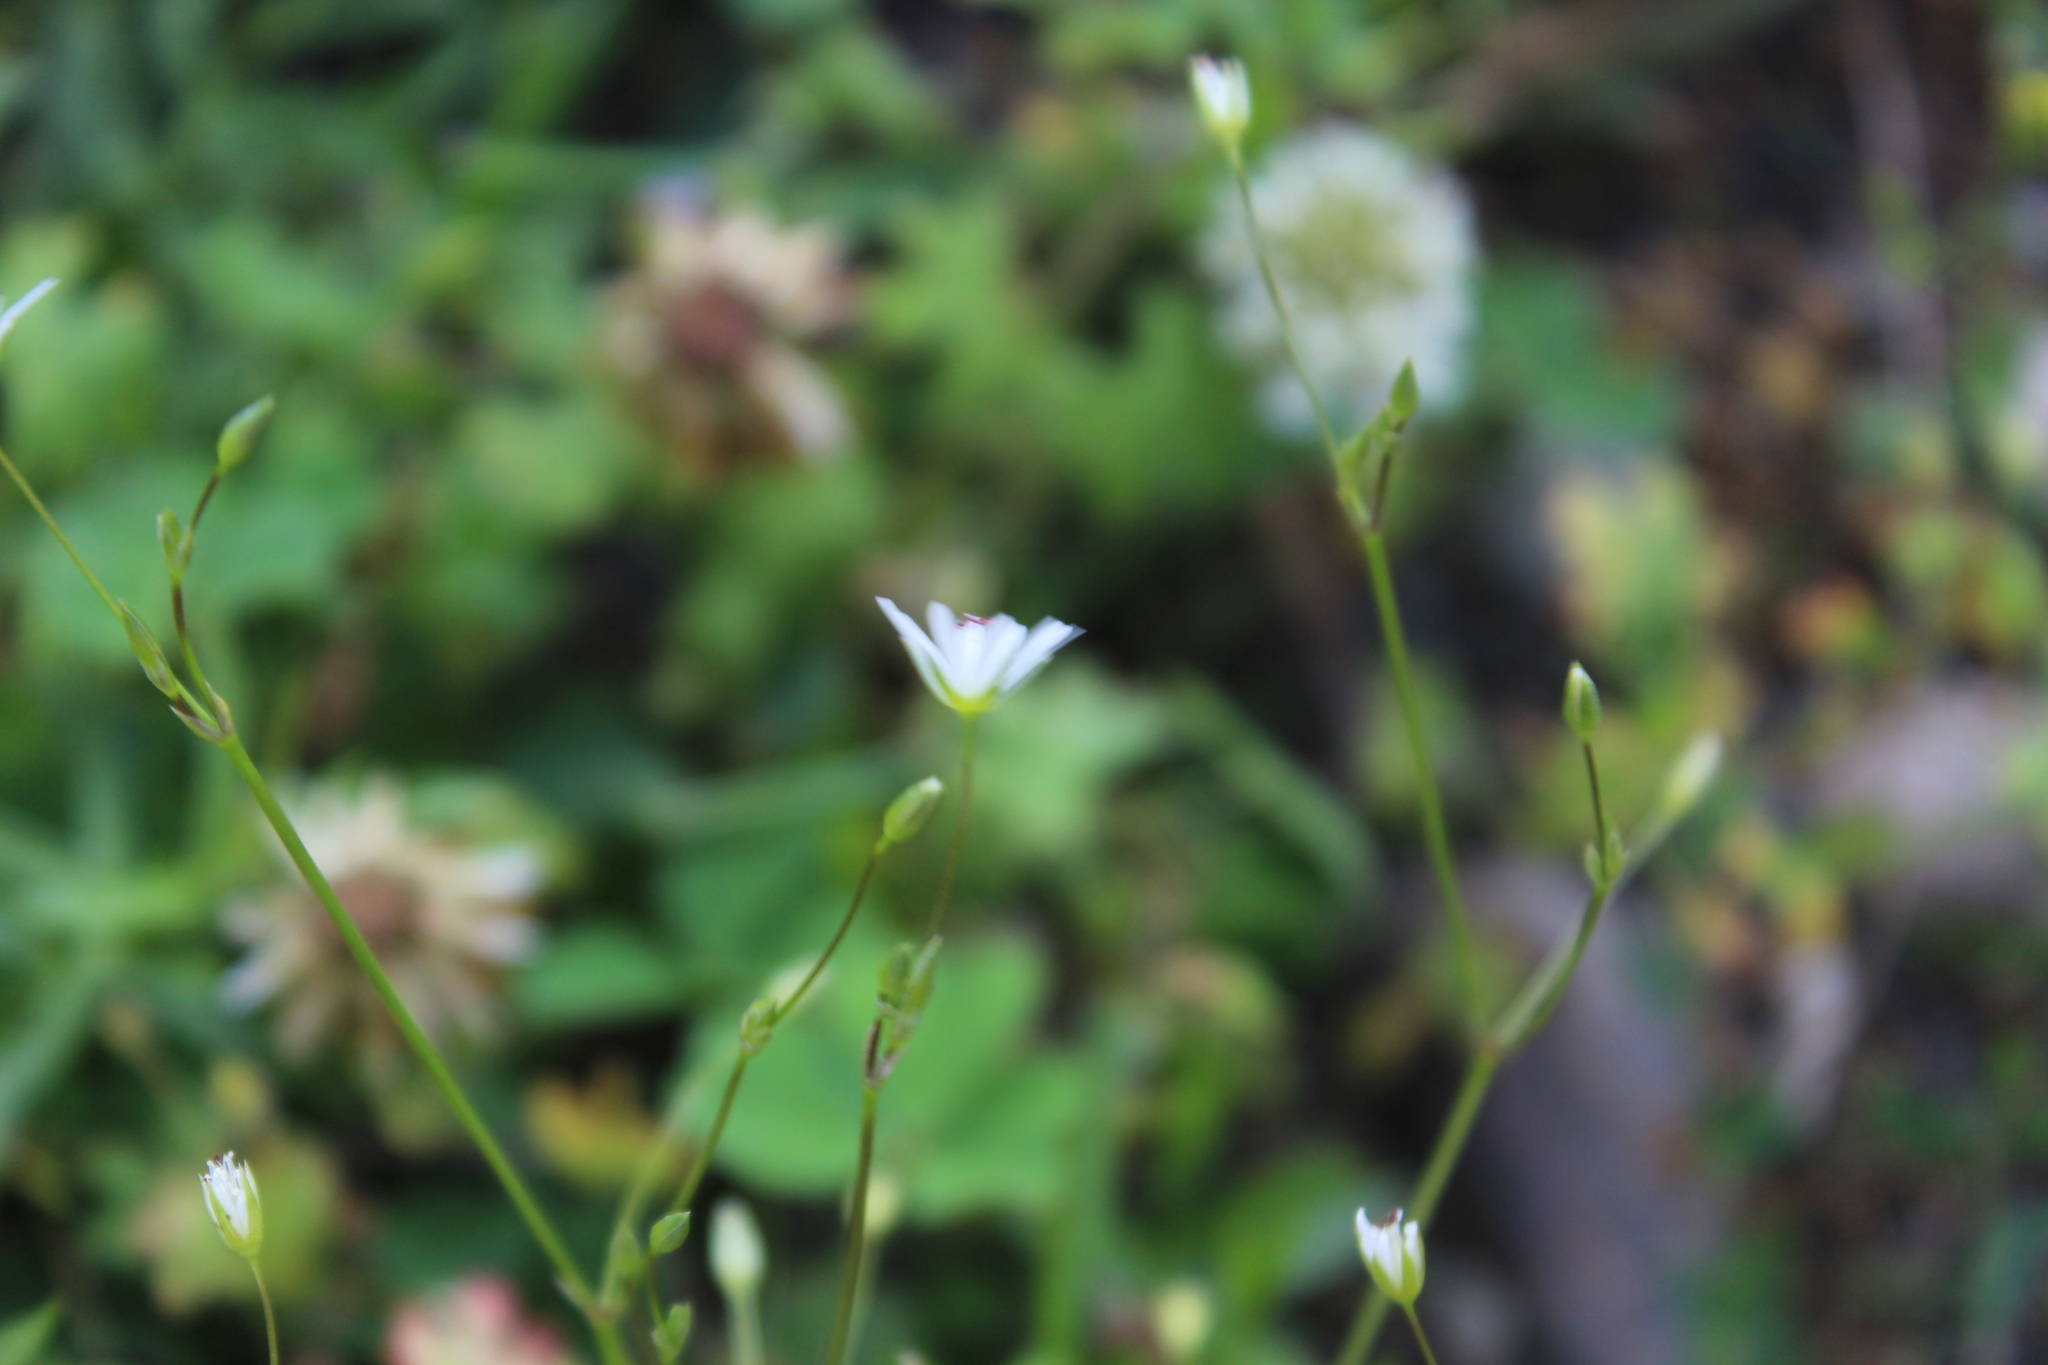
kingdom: Plantae
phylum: Tracheophyta
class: Magnoliopsida
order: Caryophyllales
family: Caryophyllaceae
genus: Stellaria
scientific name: Stellaria graminea
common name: Grass-like starwort
